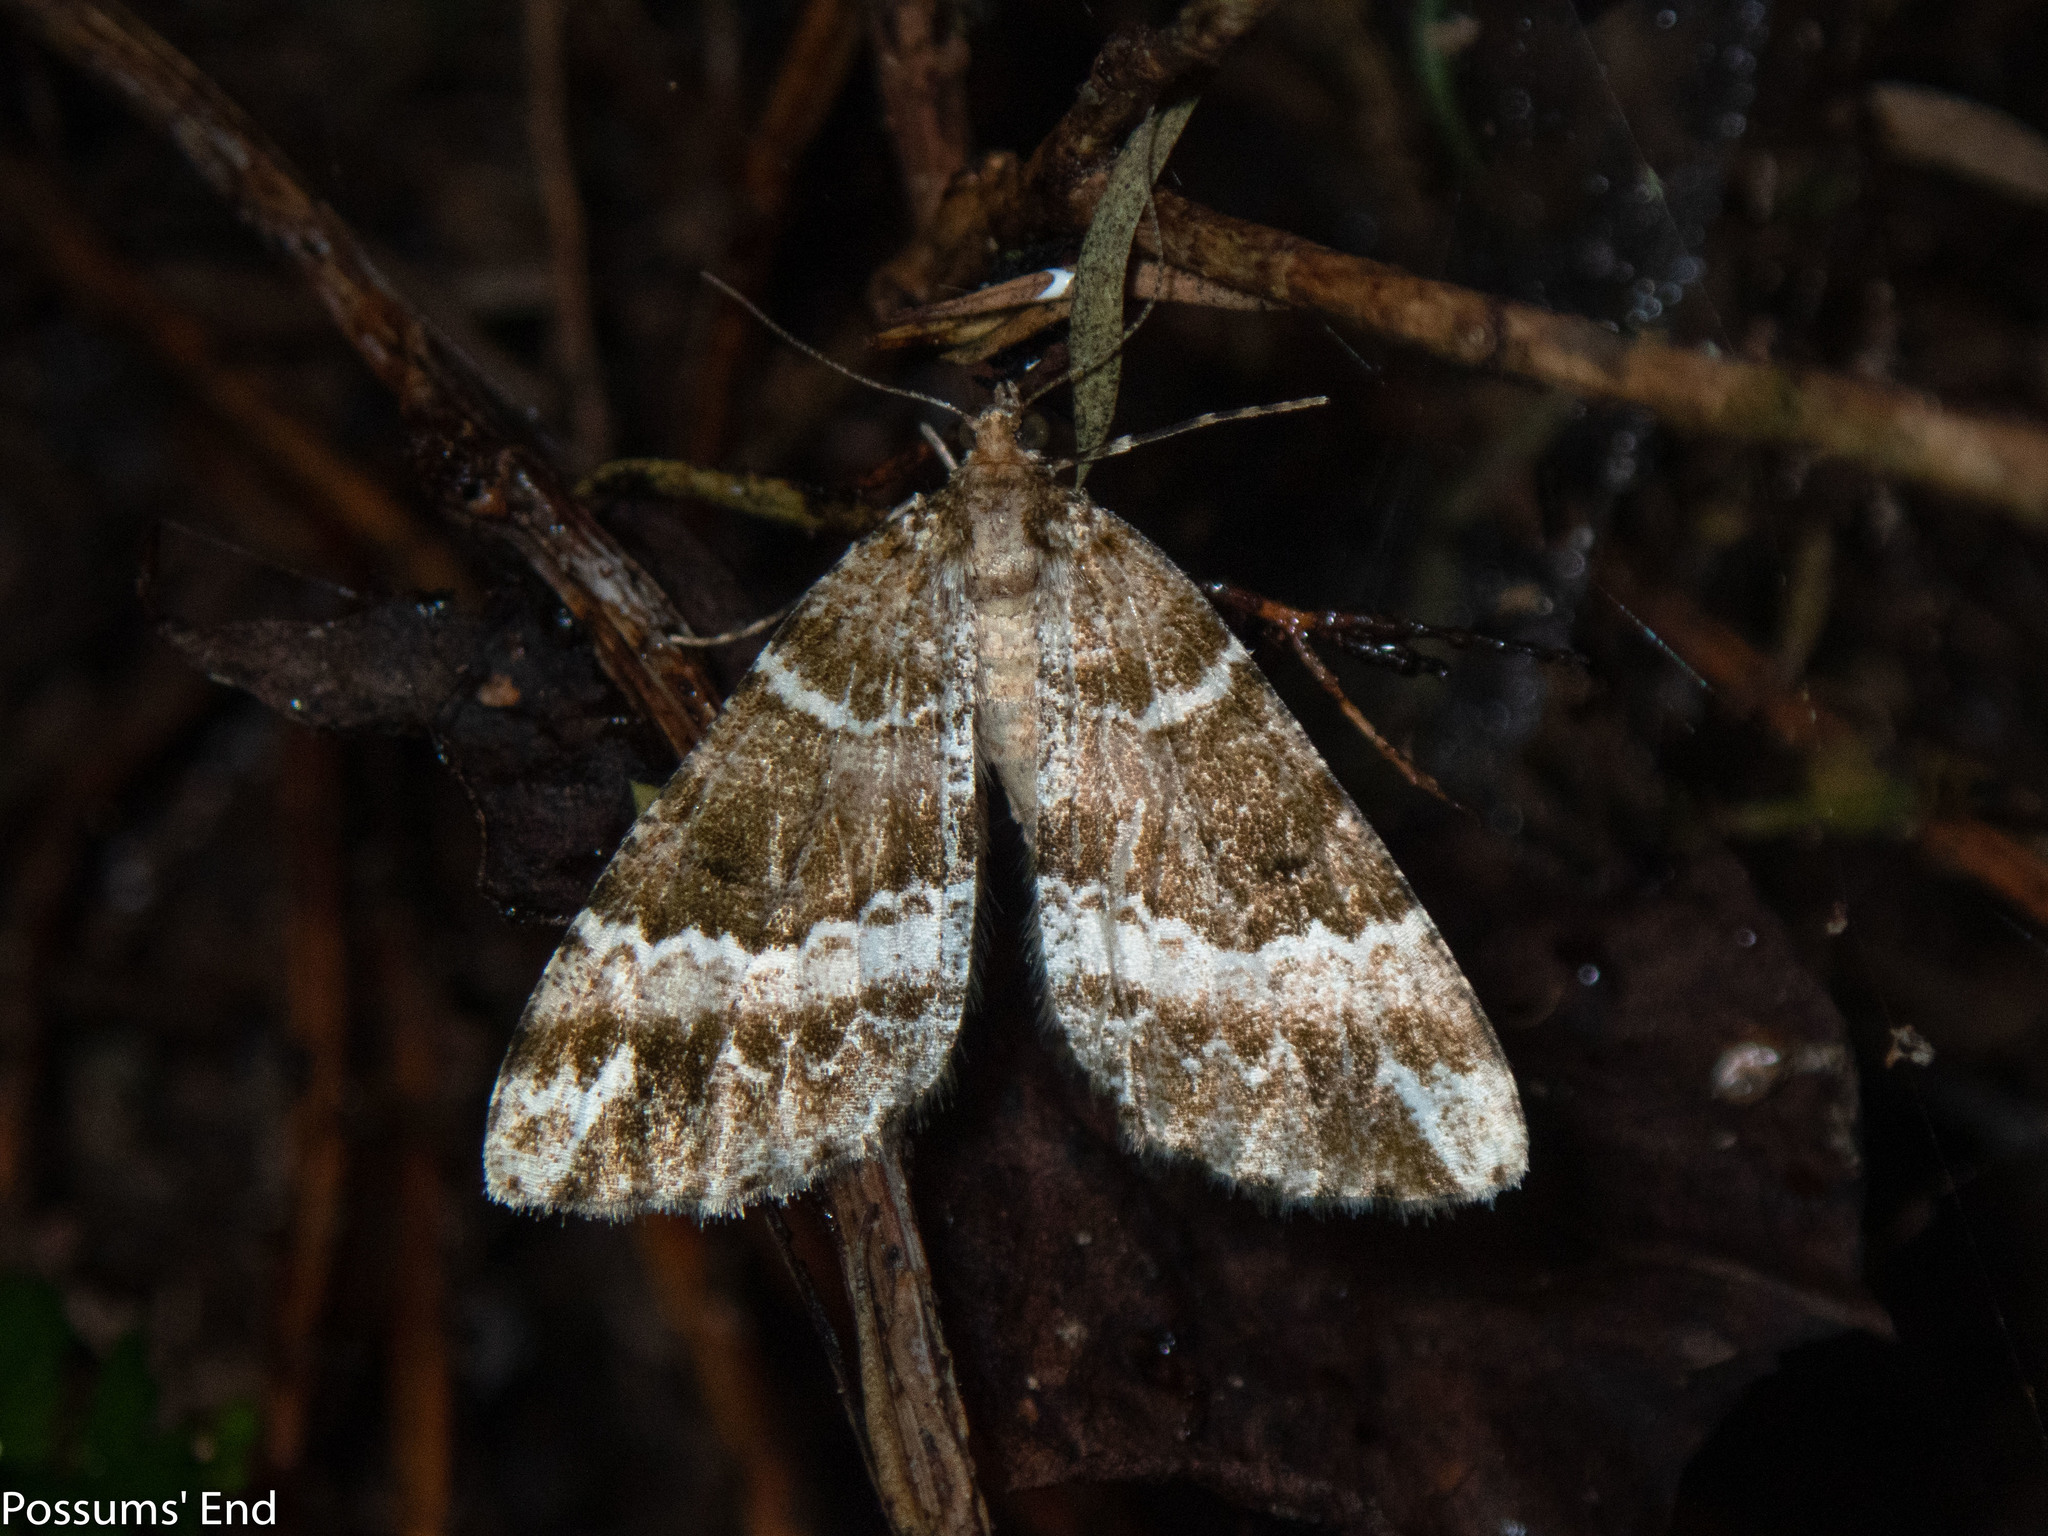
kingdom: Animalia
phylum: Arthropoda
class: Insecta
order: Lepidoptera
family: Geometridae
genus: Pseudocoremia
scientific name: Pseudocoremia
